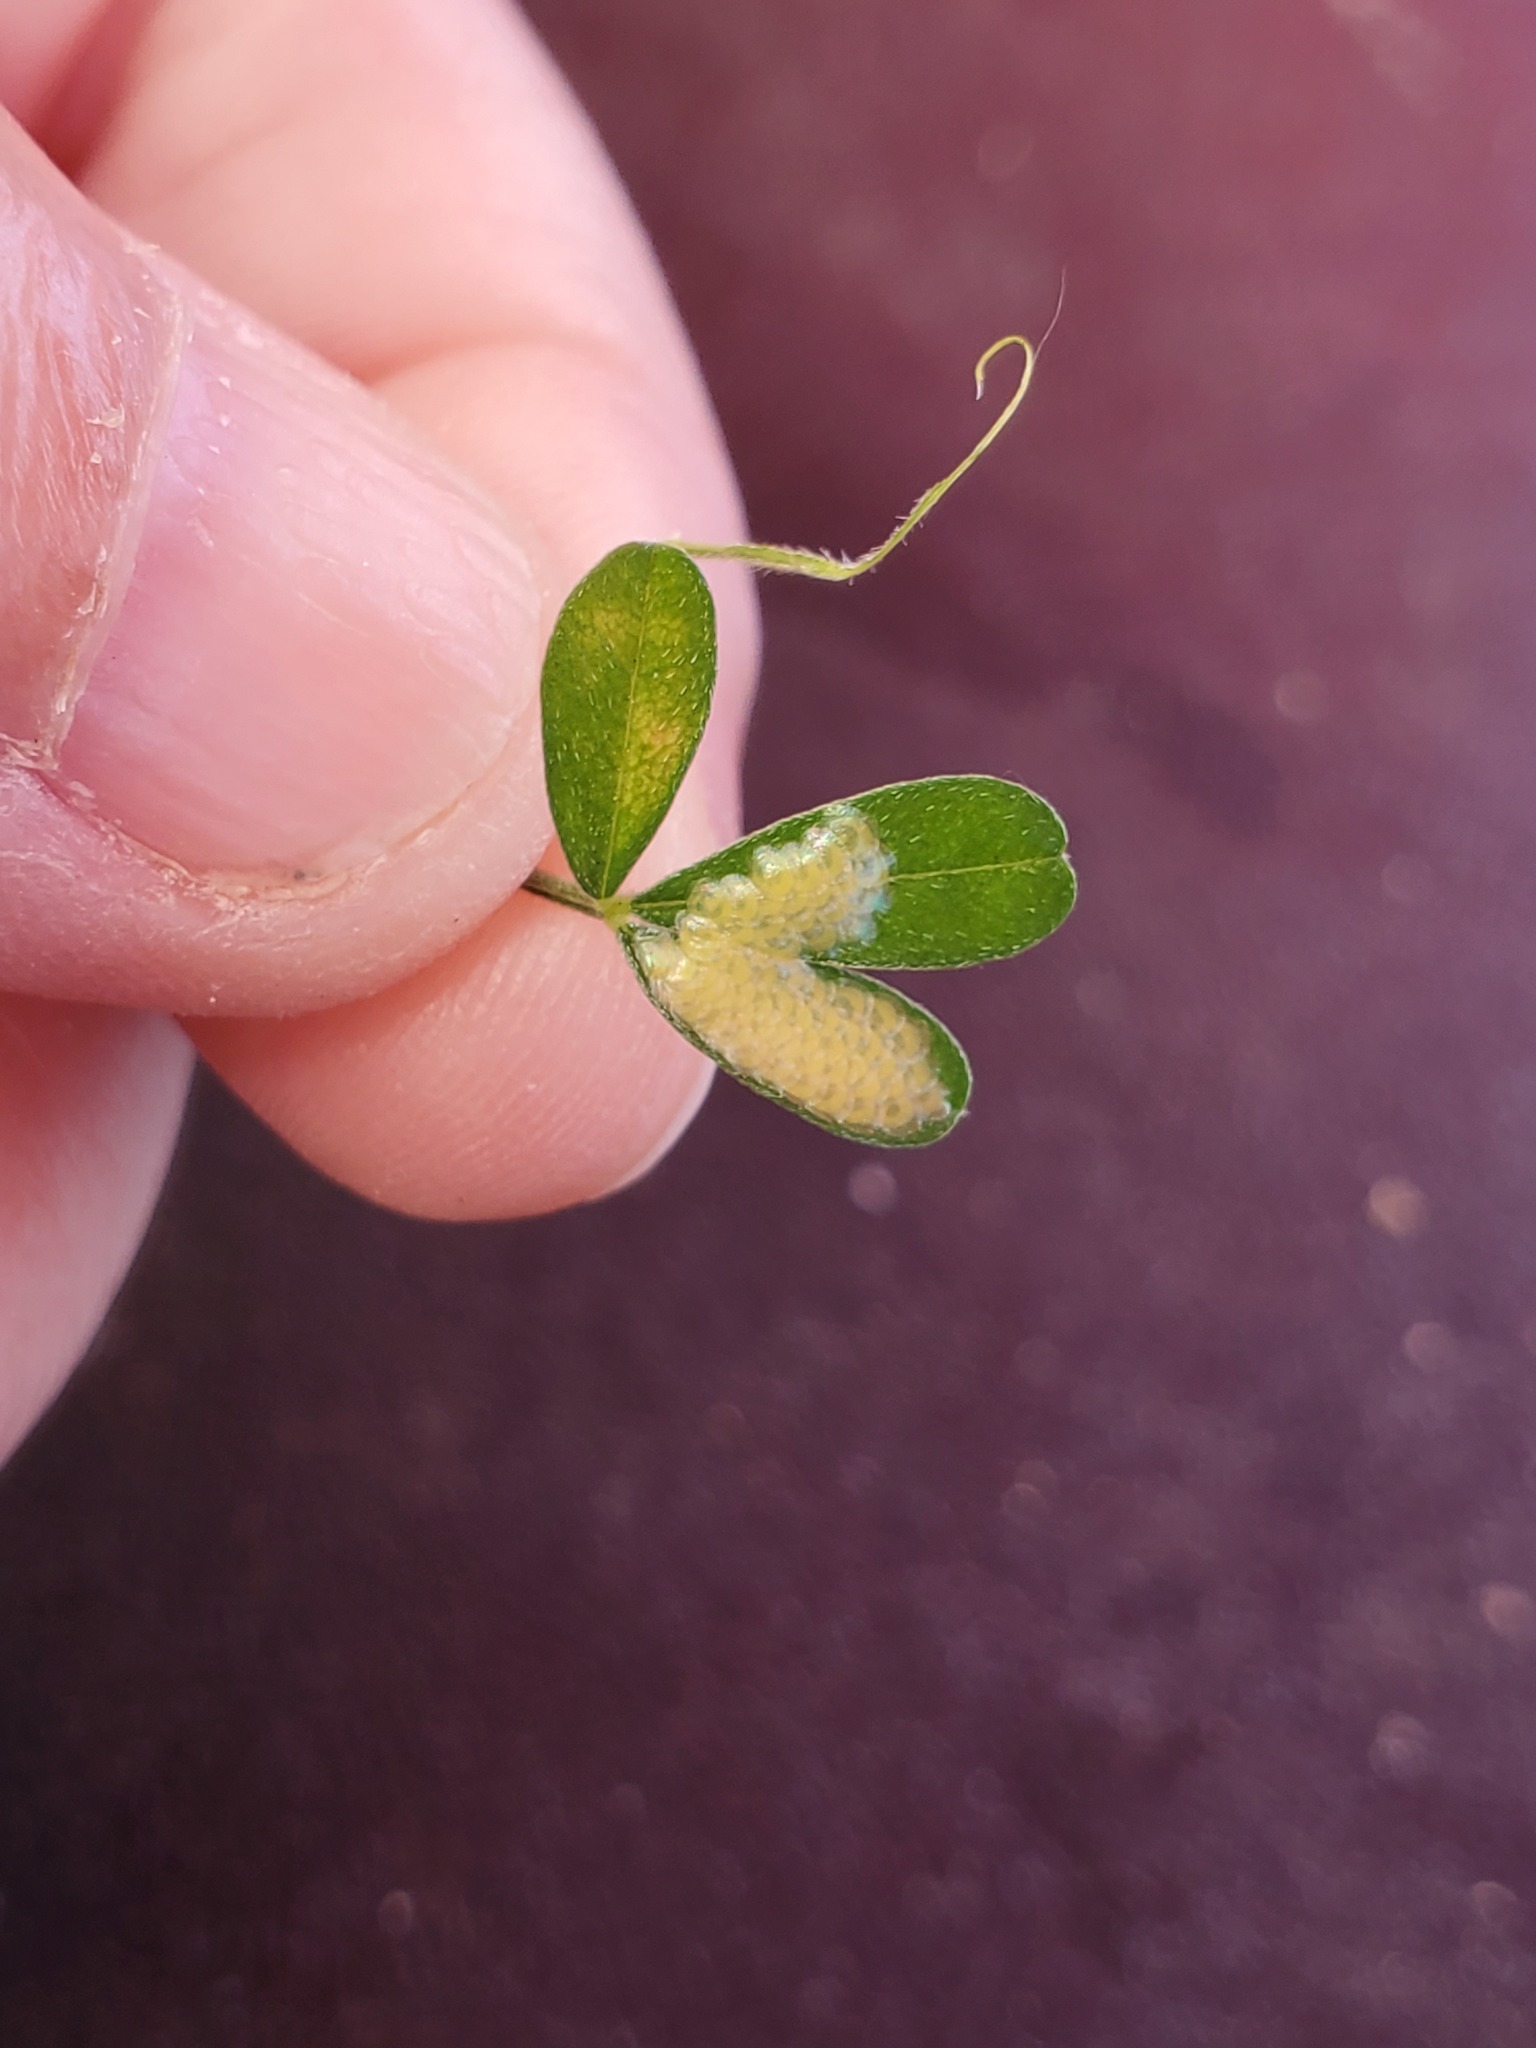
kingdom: Animalia
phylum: Arthropoda
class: Insecta
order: Lepidoptera
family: Crambidae
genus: Uresiphita
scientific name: Uresiphita reversalis
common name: Genista broom moth
